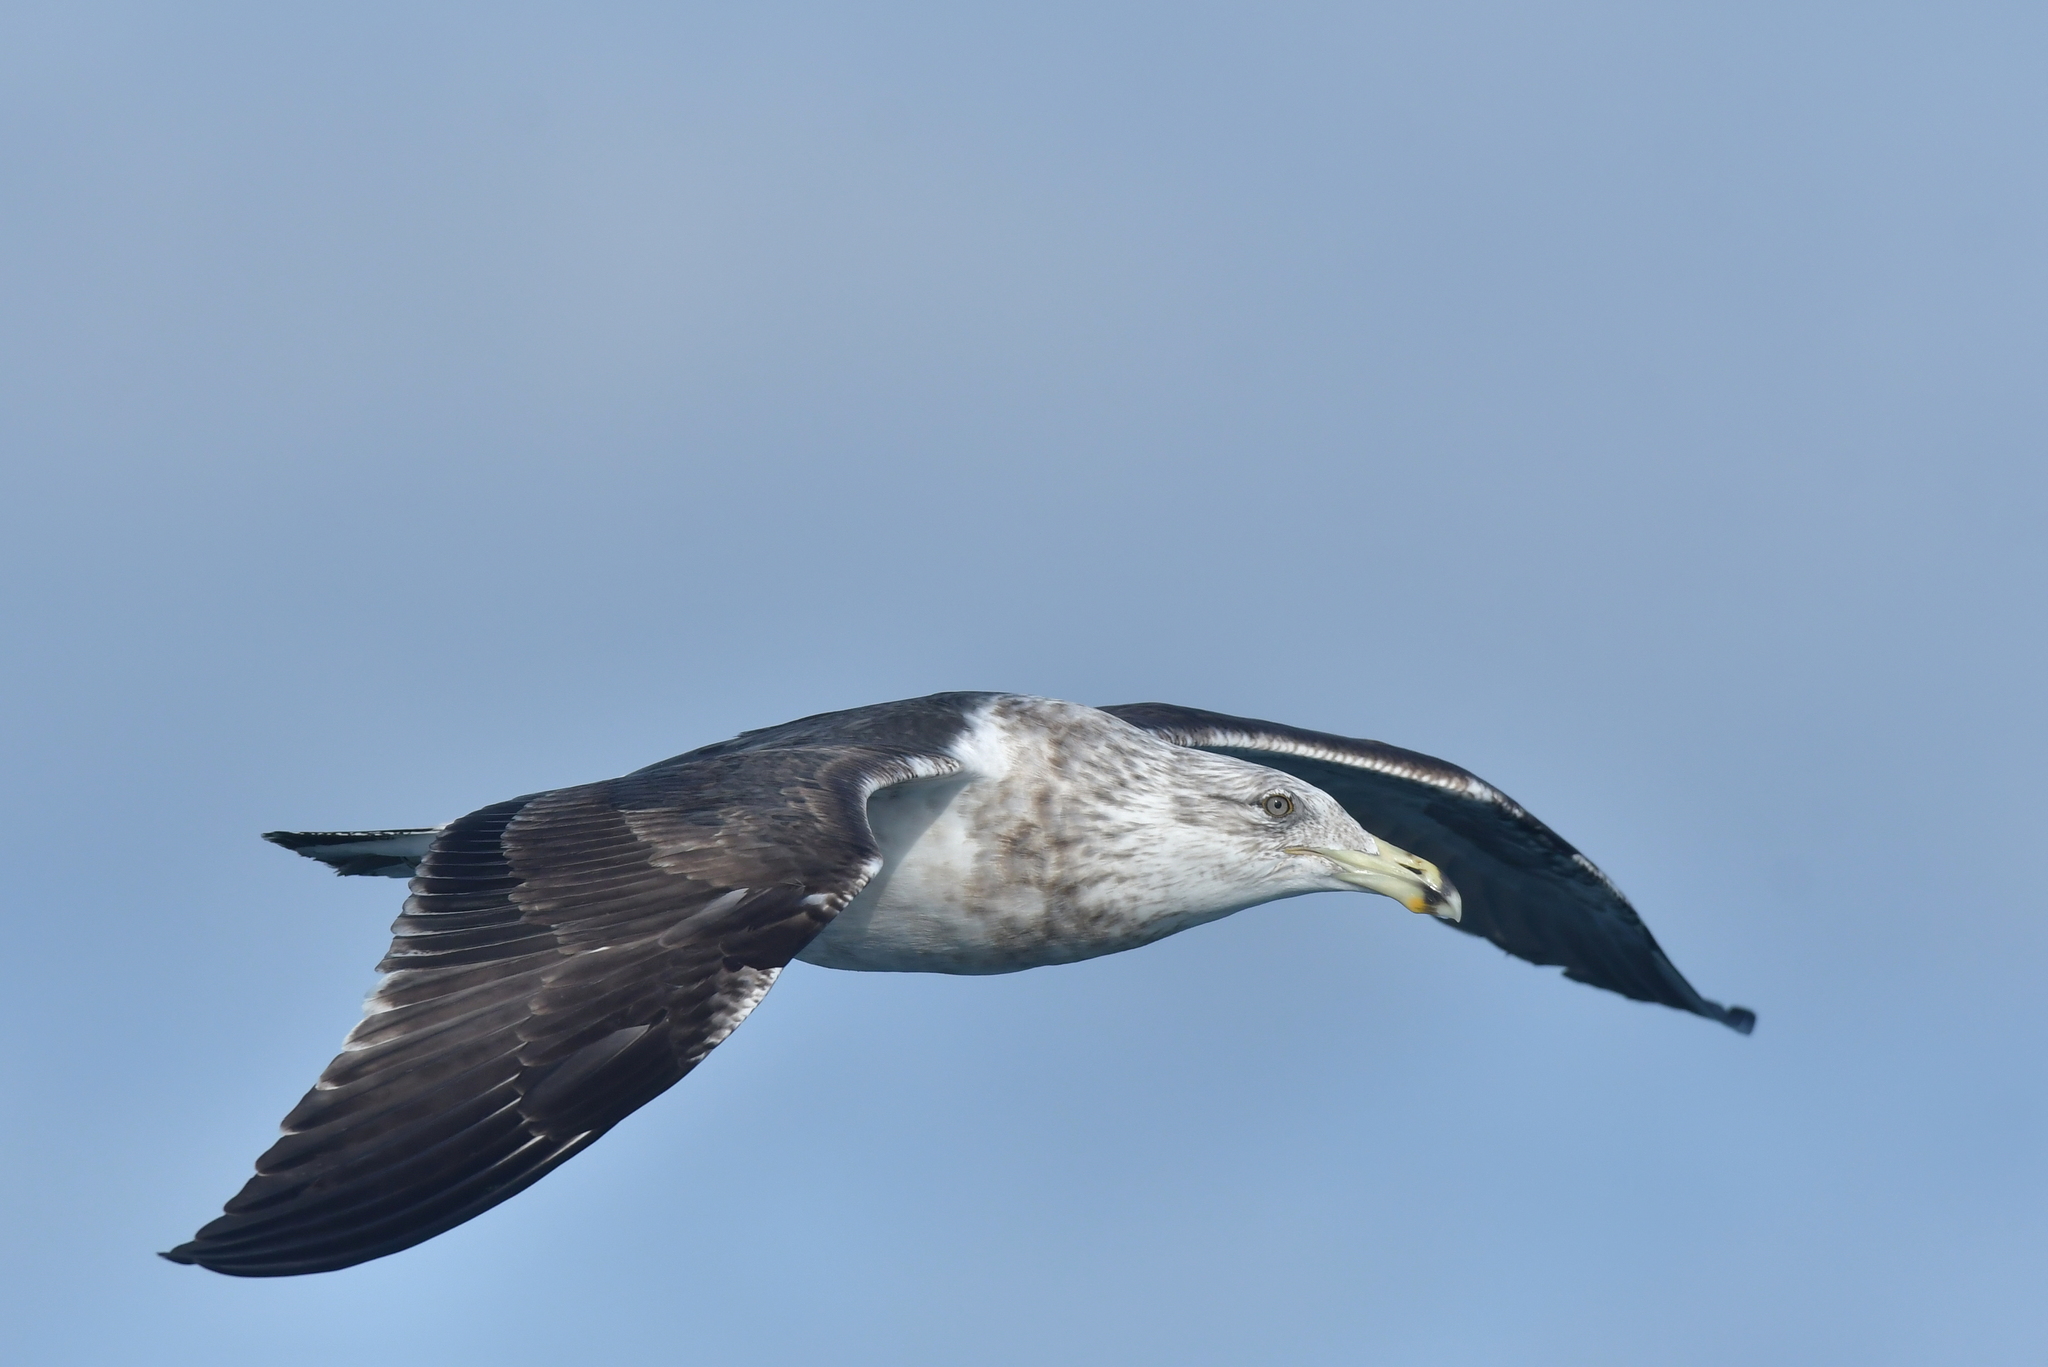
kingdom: Animalia
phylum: Chordata
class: Aves
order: Charadriiformes
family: Laridae
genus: Larus
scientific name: Larus dominicanus
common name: Kelp gull
